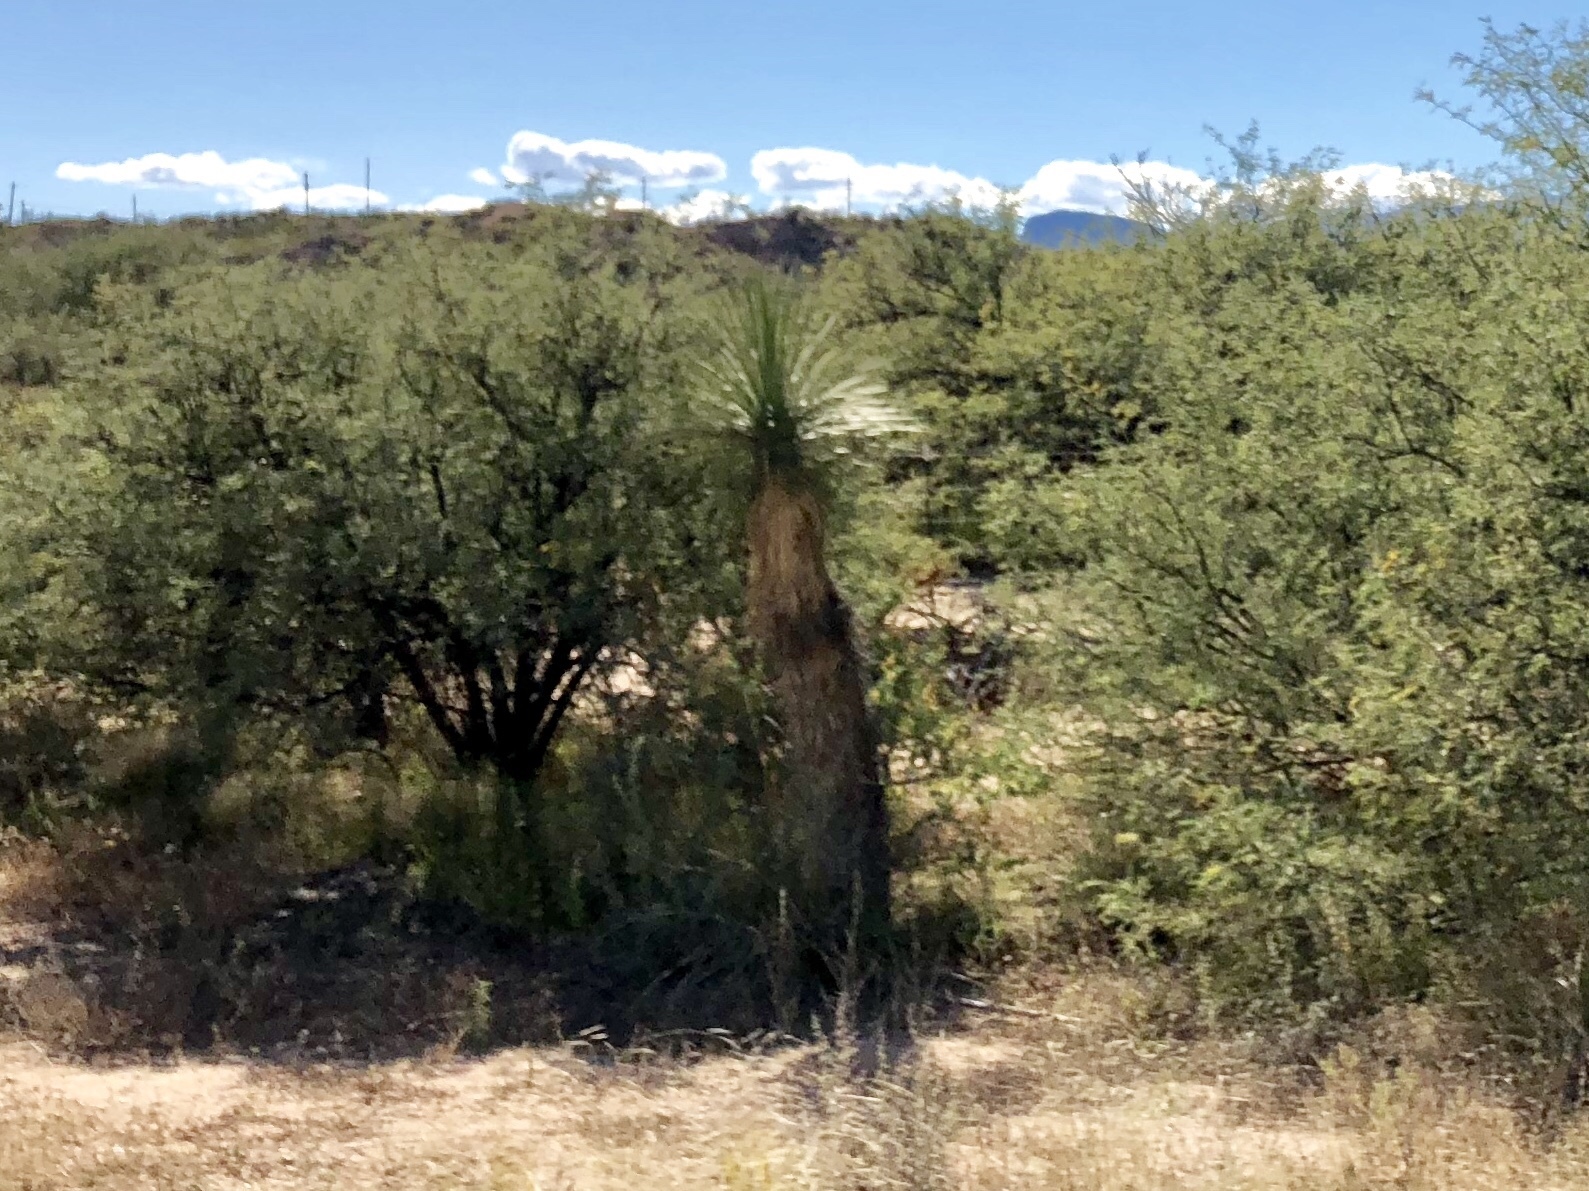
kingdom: Plantae
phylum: Tracheophyta
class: Liliopsida
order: Asparagales
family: Asparagaceae
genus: Yucca
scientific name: Yucca elata
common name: Palmella
